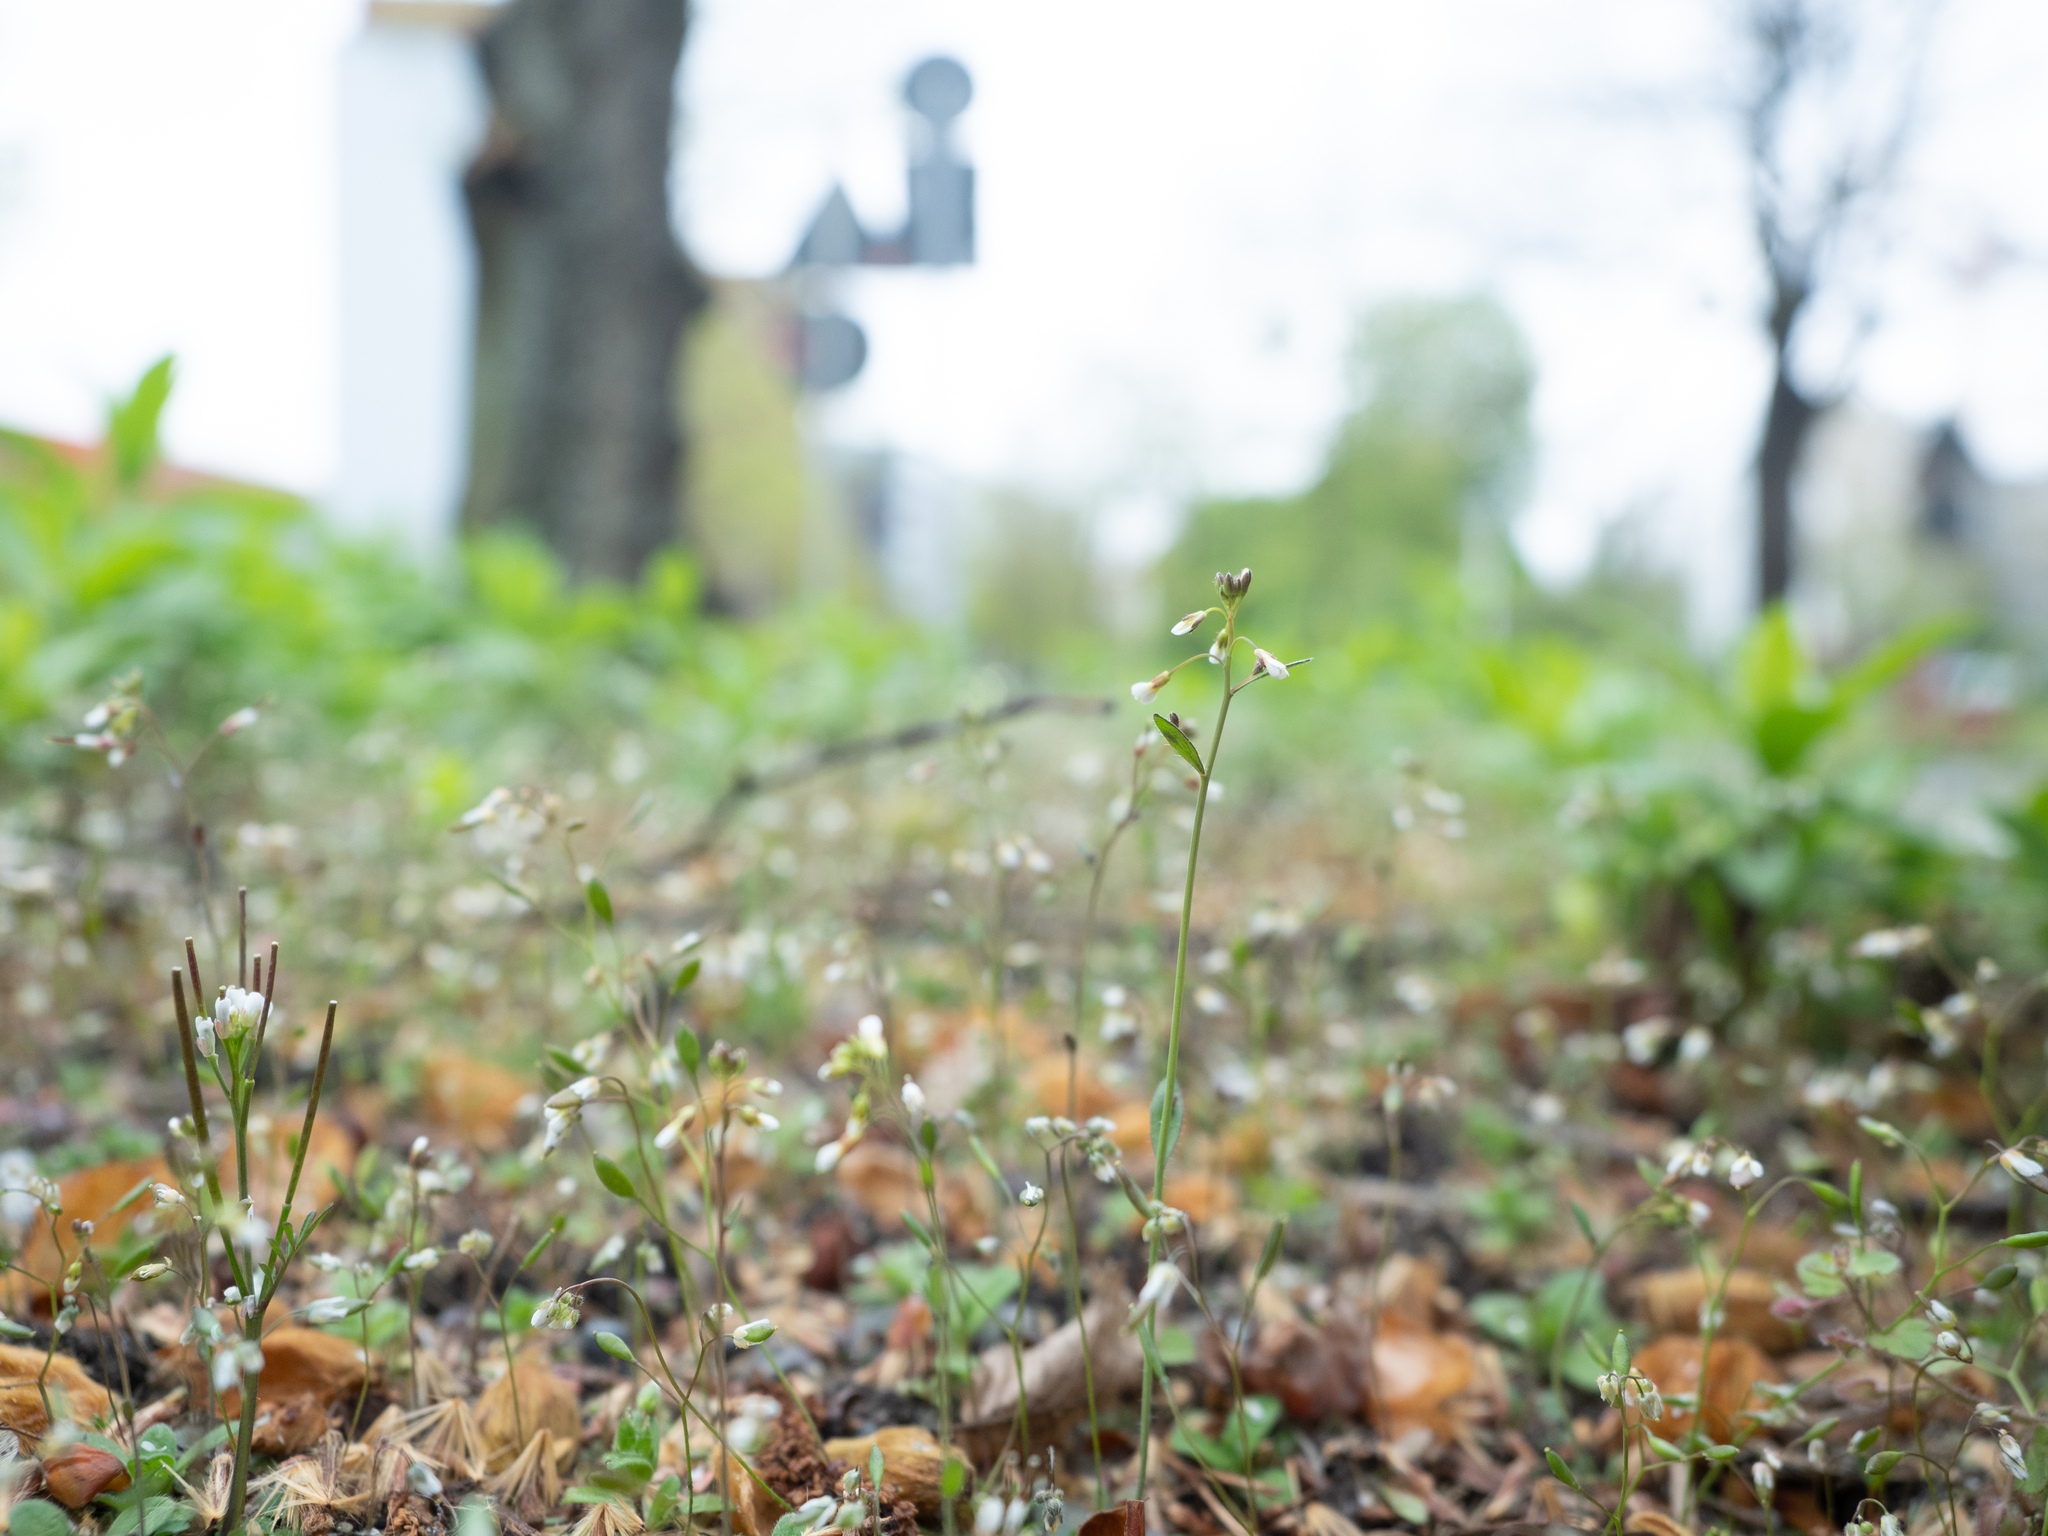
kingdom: Plantae
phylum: Tracheophyta
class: Magnoliopsida
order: Brassicales
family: Brassicaceae
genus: Draba
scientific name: Draba verna
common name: Spring draba
